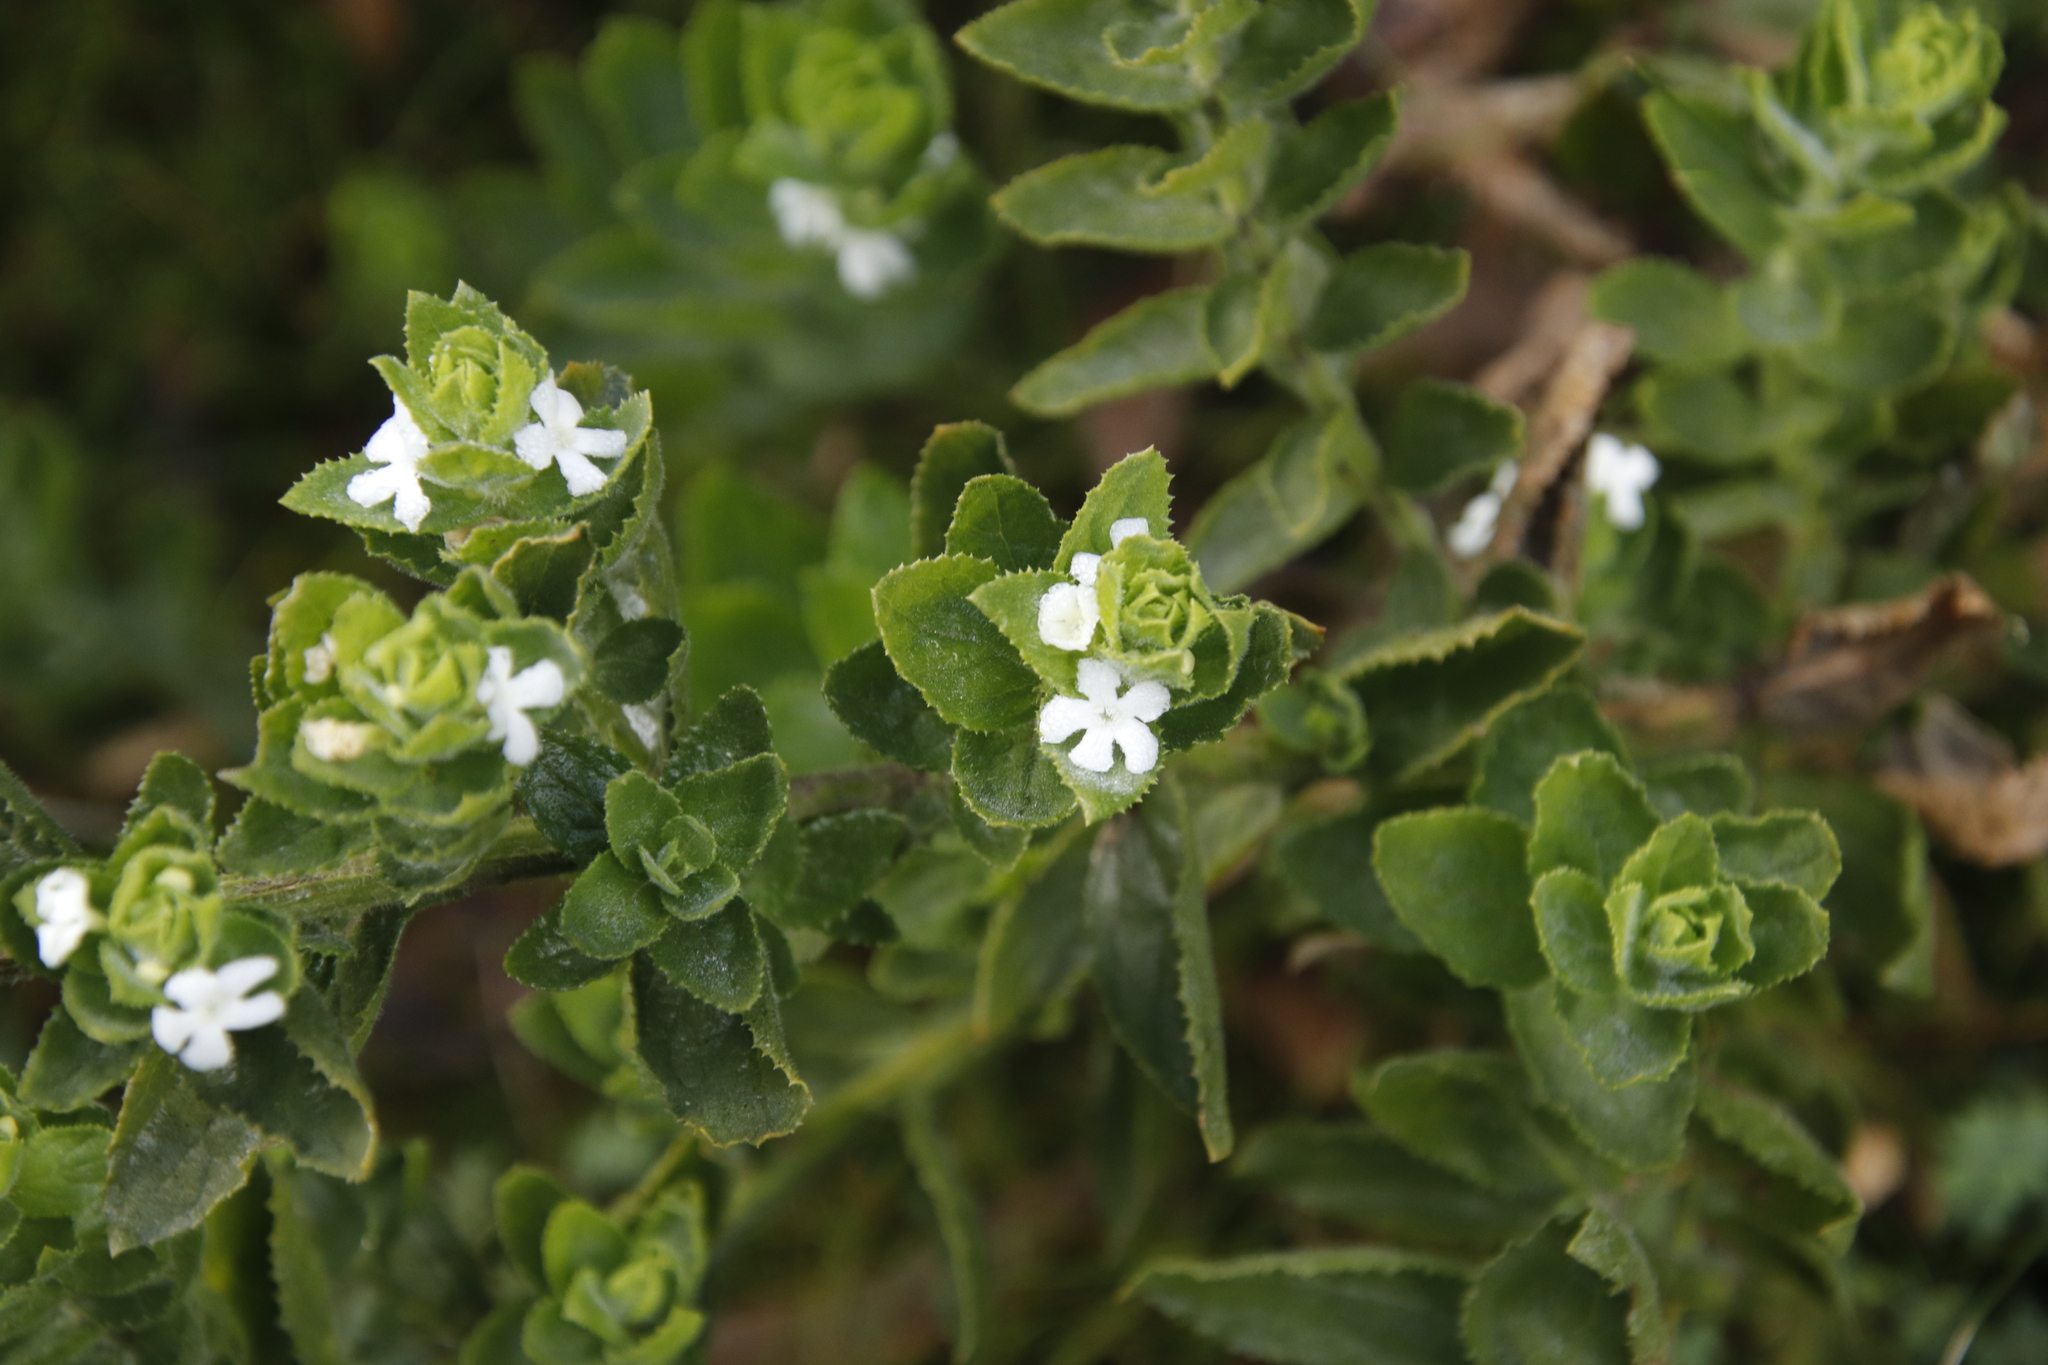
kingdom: Plantae
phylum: Tracheophyta
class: Magnoliopsida
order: Lamiales
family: Scrophulariaceae
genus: Oftia
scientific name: Oftia africana
